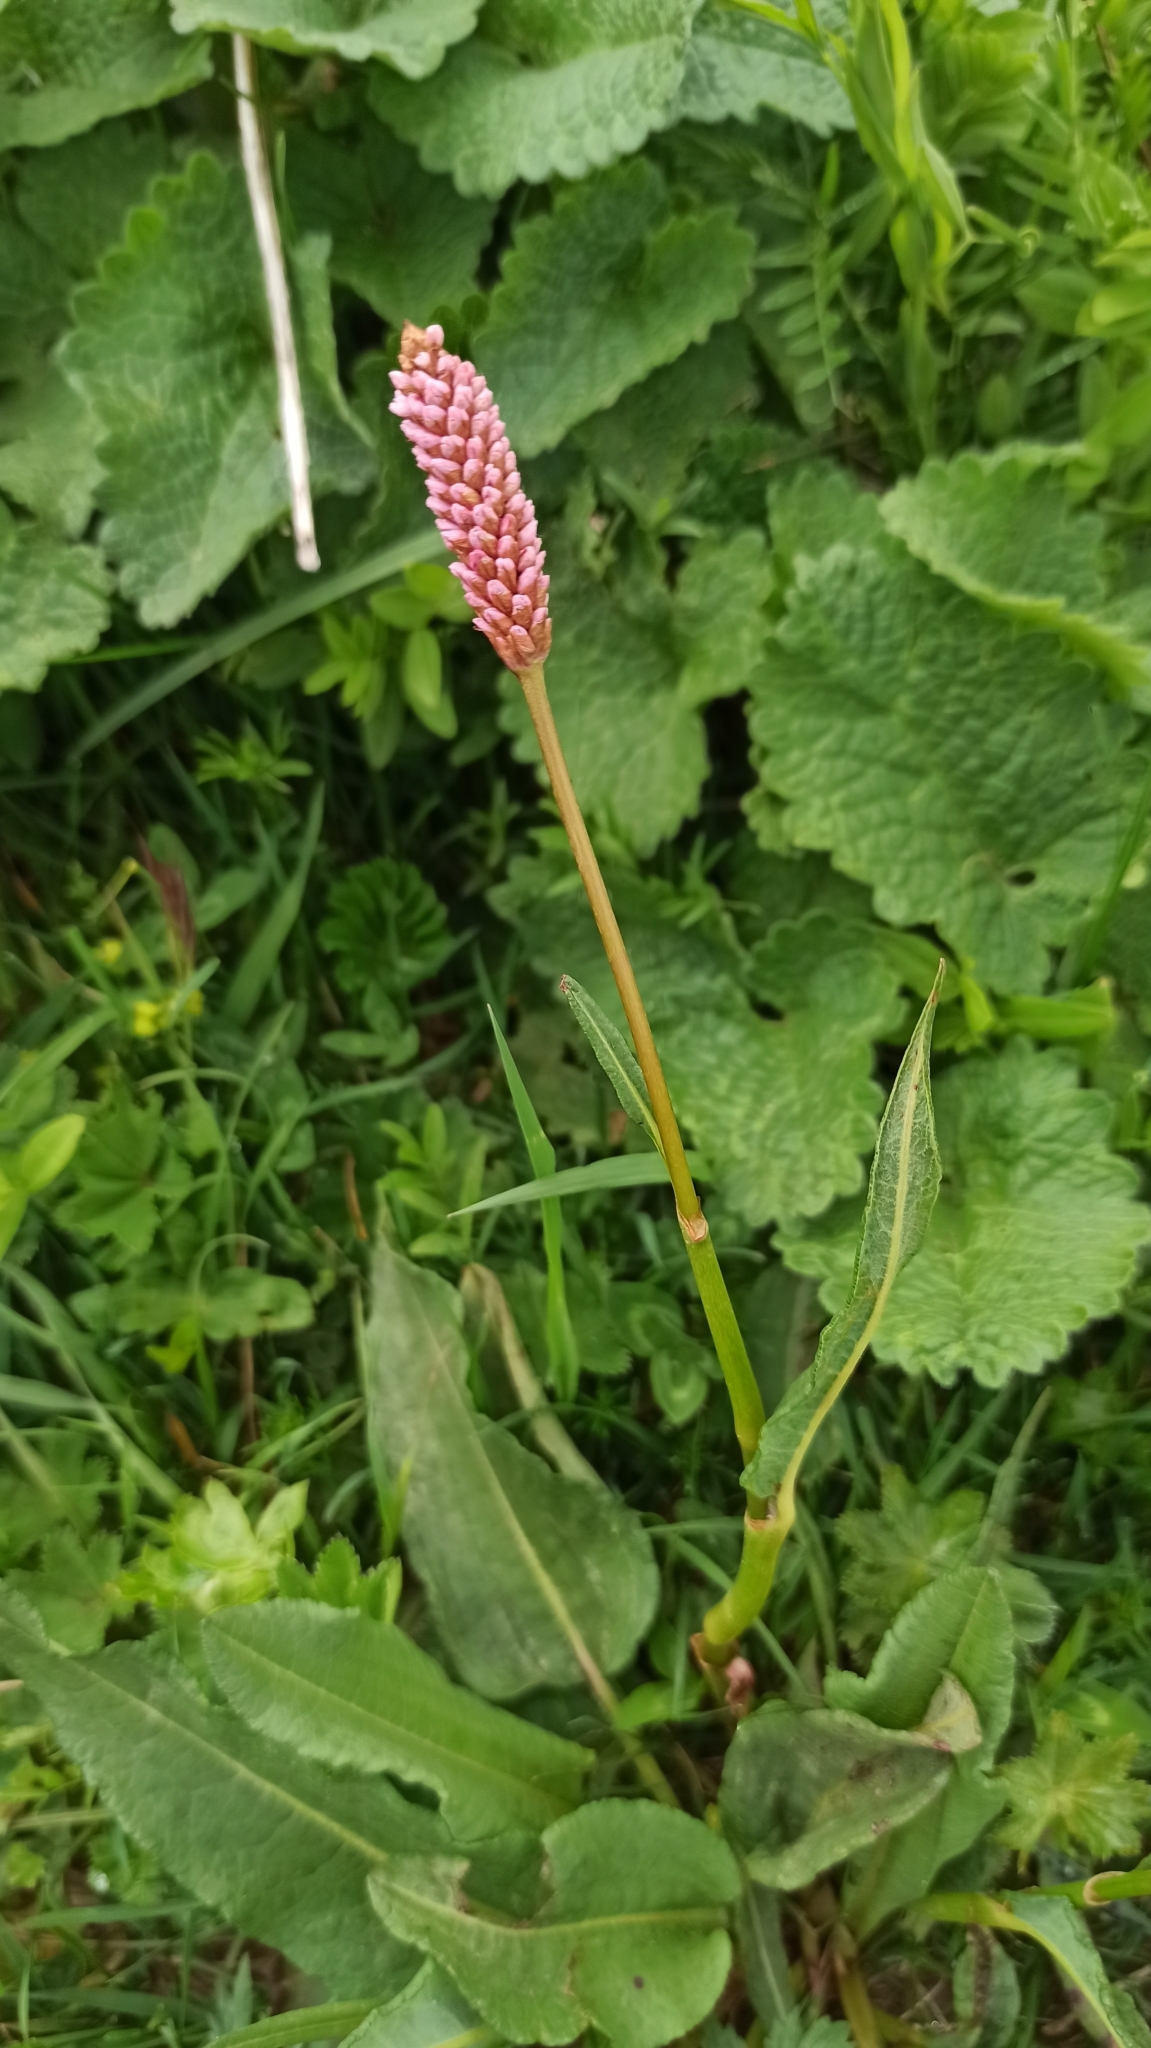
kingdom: Plantae
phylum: Tracheophyta
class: Magnoliopsida
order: Caryophyllales
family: Polygonaceae
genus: Bistorta
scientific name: Bistorta carnea
